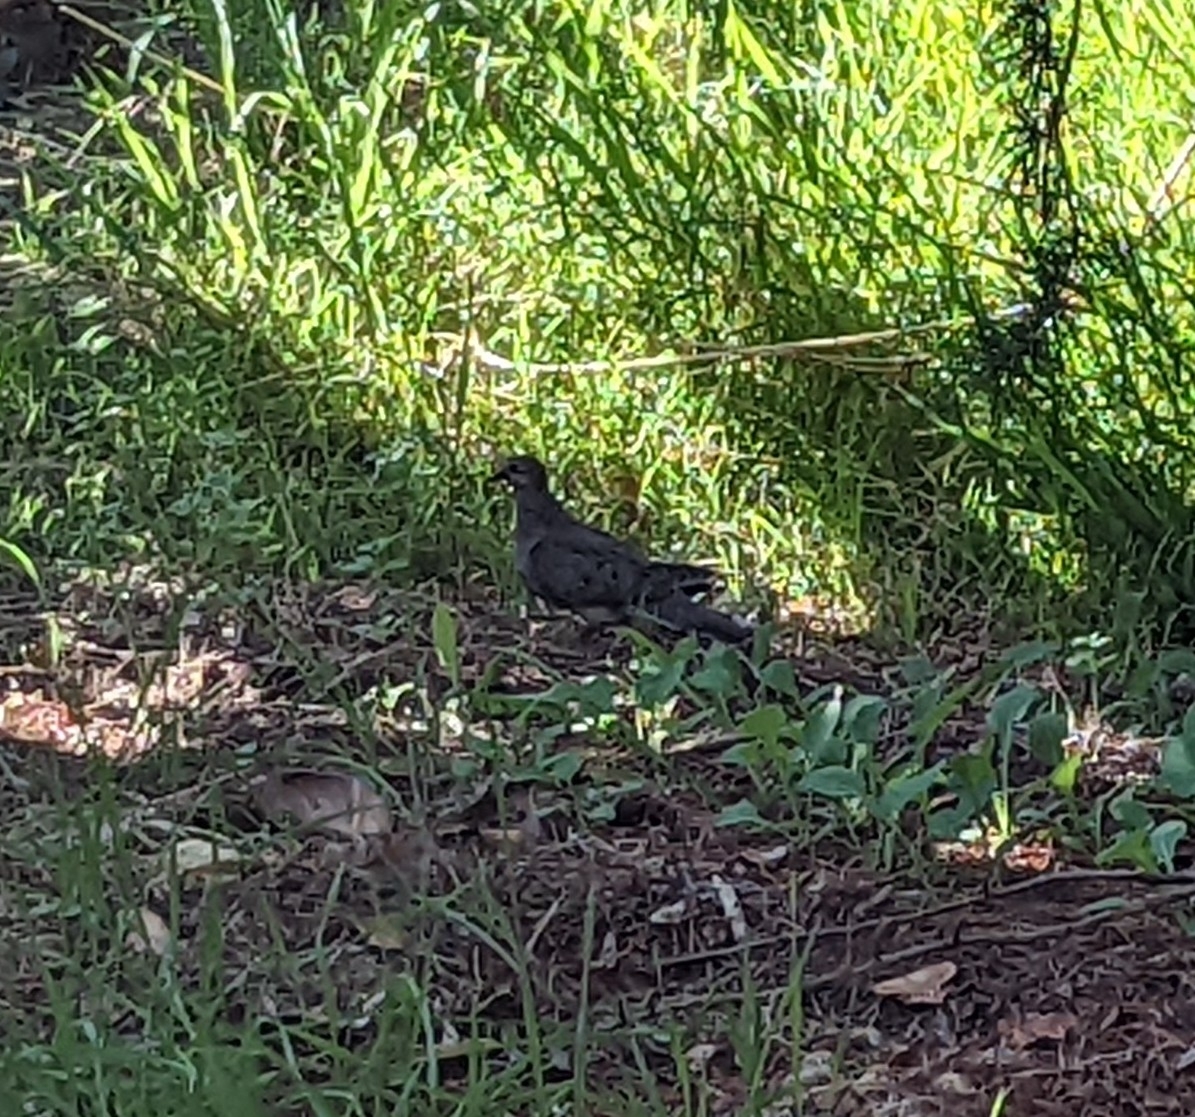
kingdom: Animalia
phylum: Chordata
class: Aves
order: Columbiformes
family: Columbidae
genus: Zenaida
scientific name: Zenaida macroura
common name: Mourning dove
